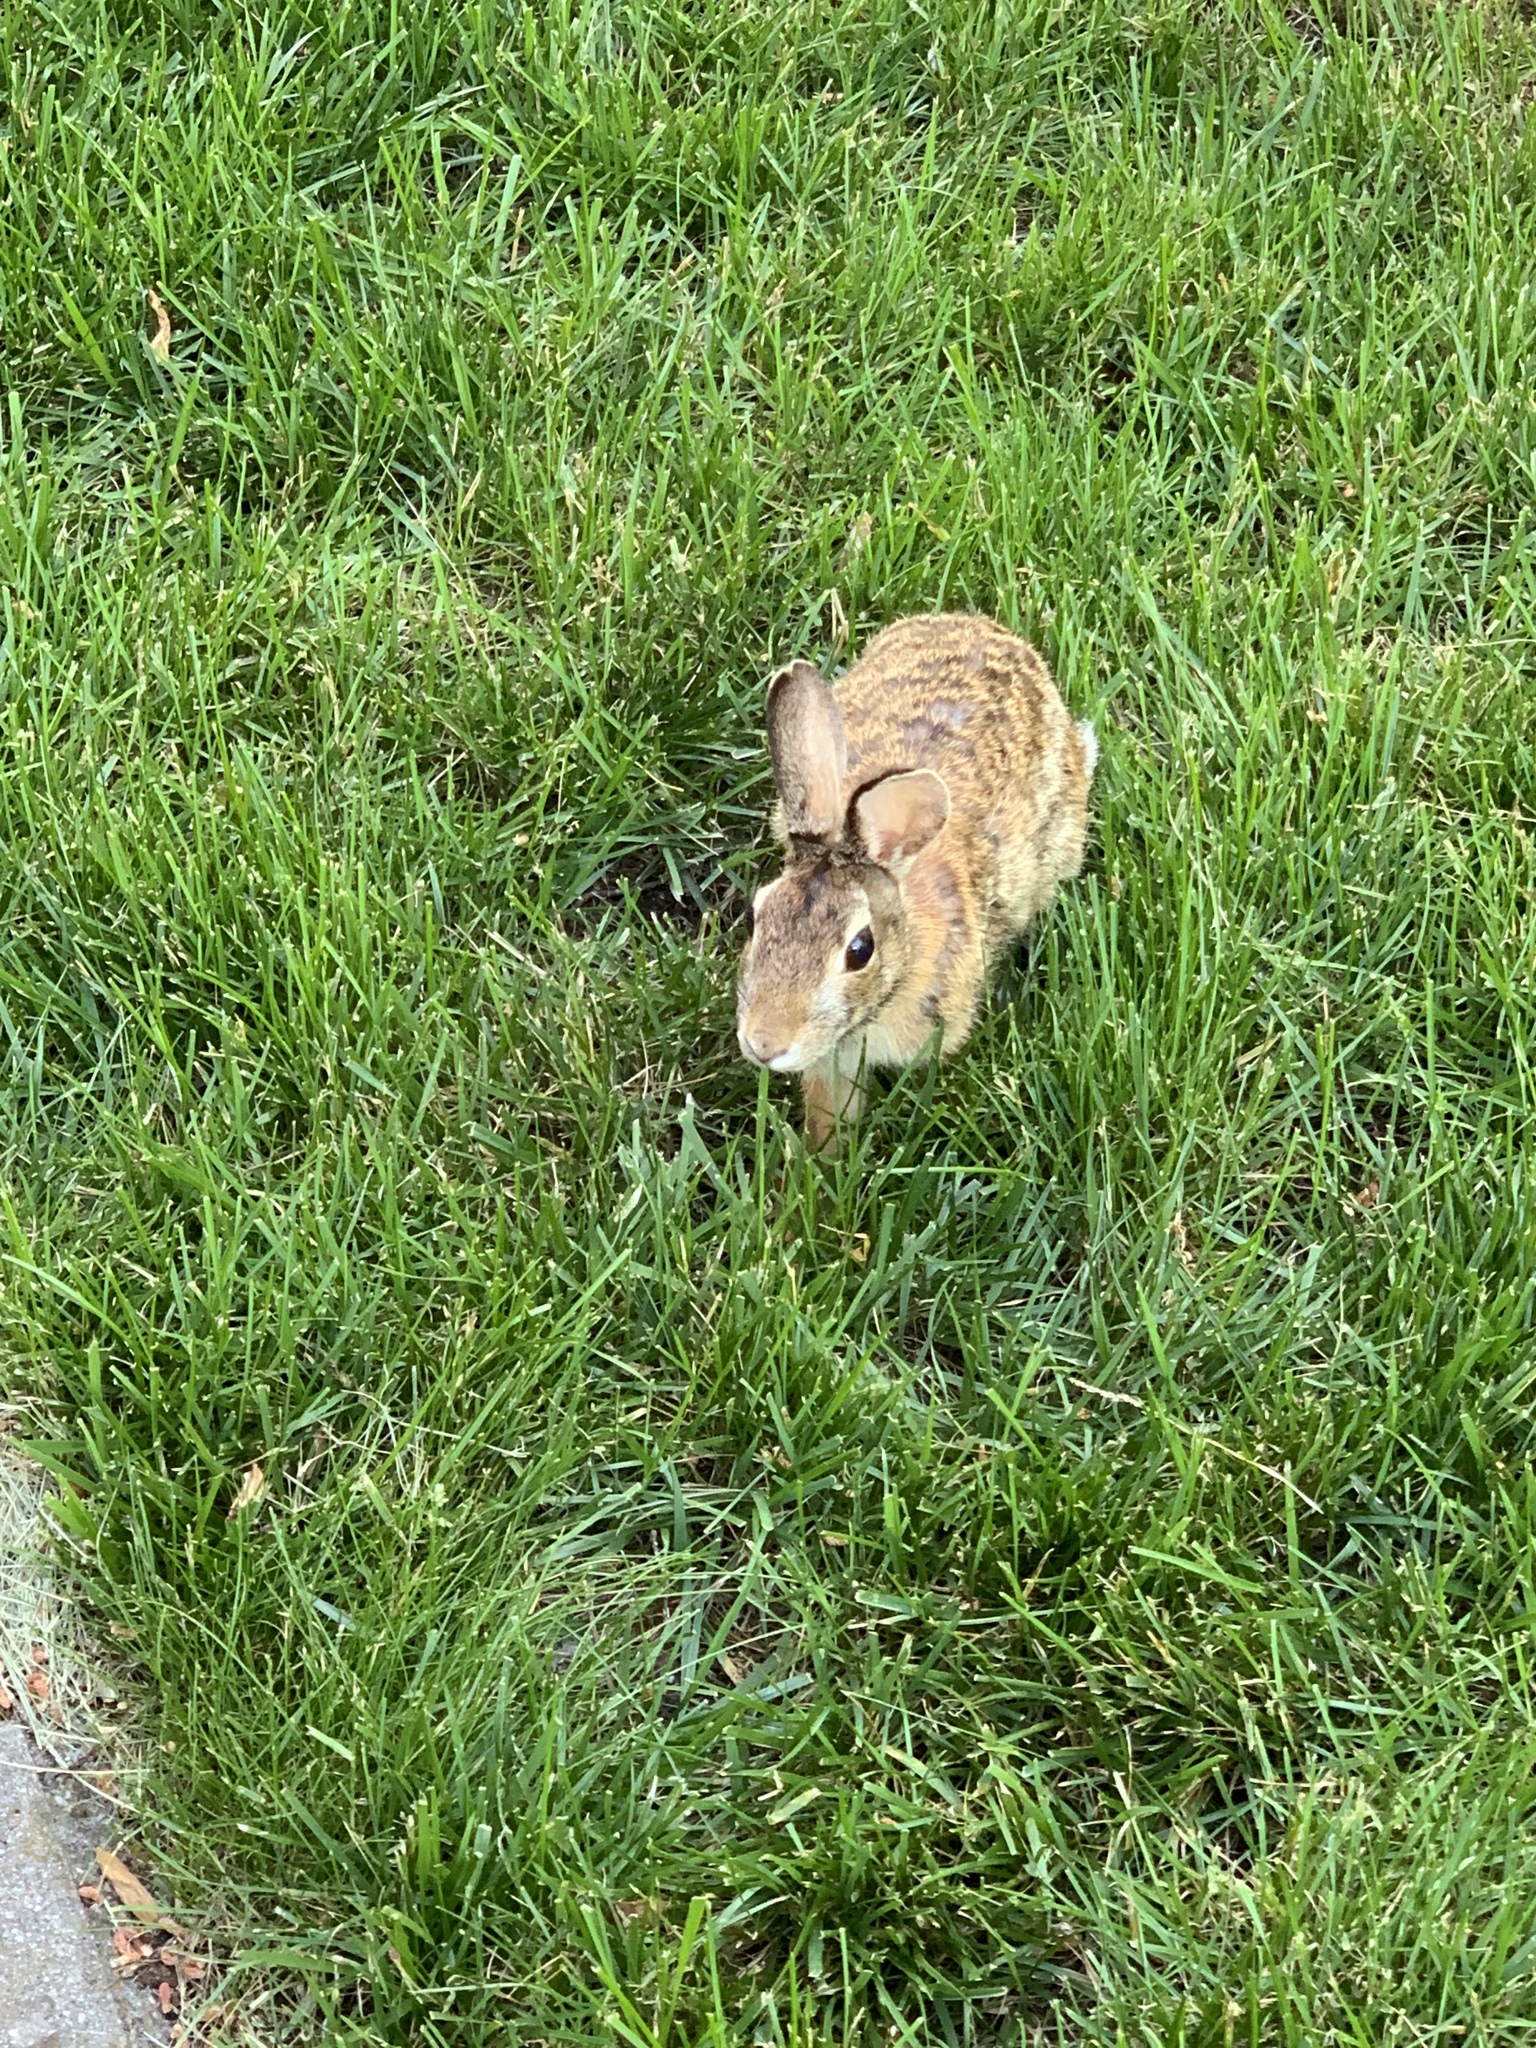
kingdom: Animalia
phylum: Chordata
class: Mammalia
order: Lagomorpha
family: Leporidae
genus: Sylvilagus
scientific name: Sylvilagus floridanus
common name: Eastern cottontail
